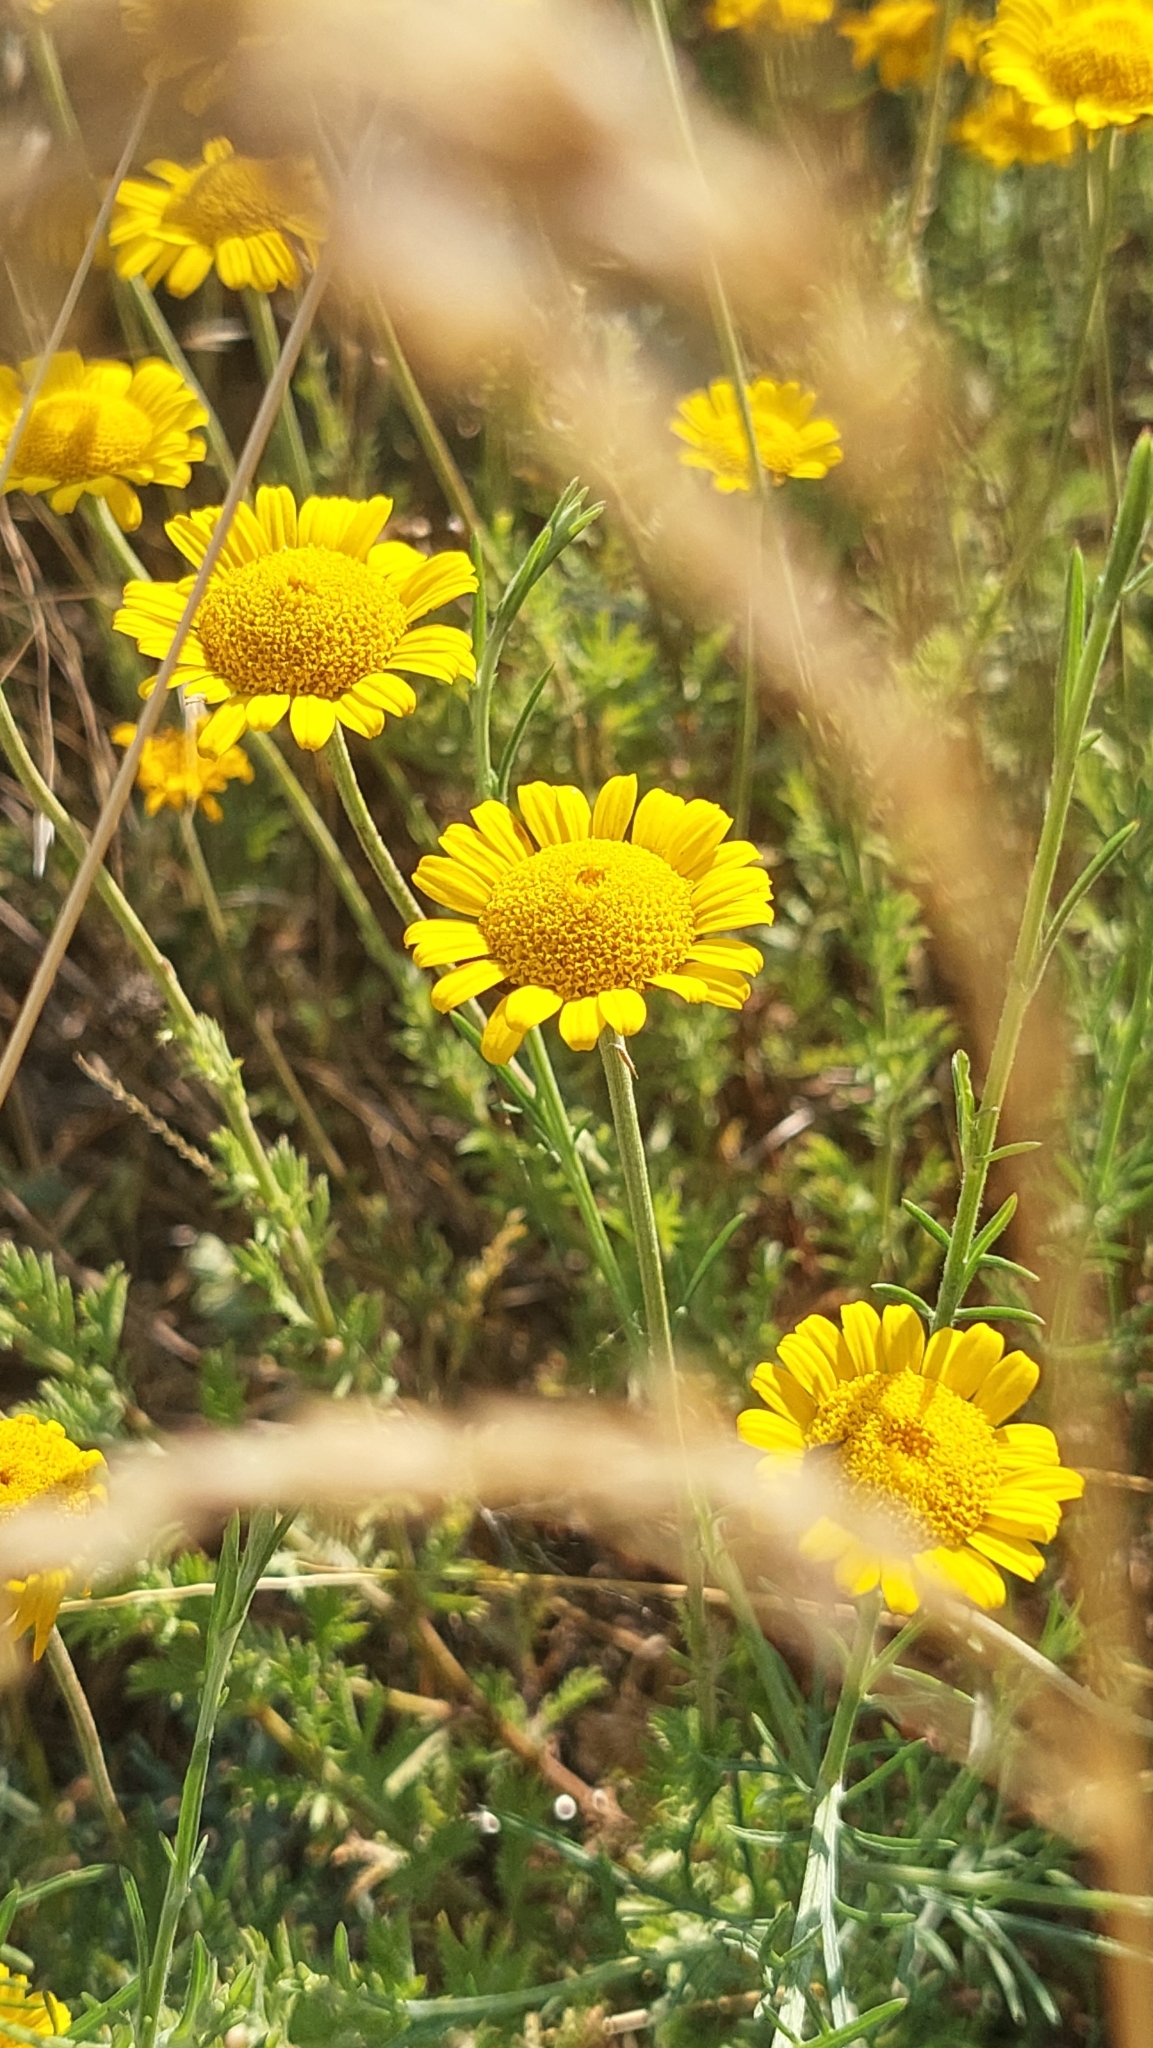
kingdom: Plantae
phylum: Tracheophyta
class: Magnoliopsida
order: Asterales
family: Asteraceae
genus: Cota
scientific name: Cota tinctoria
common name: Golden chamomile
